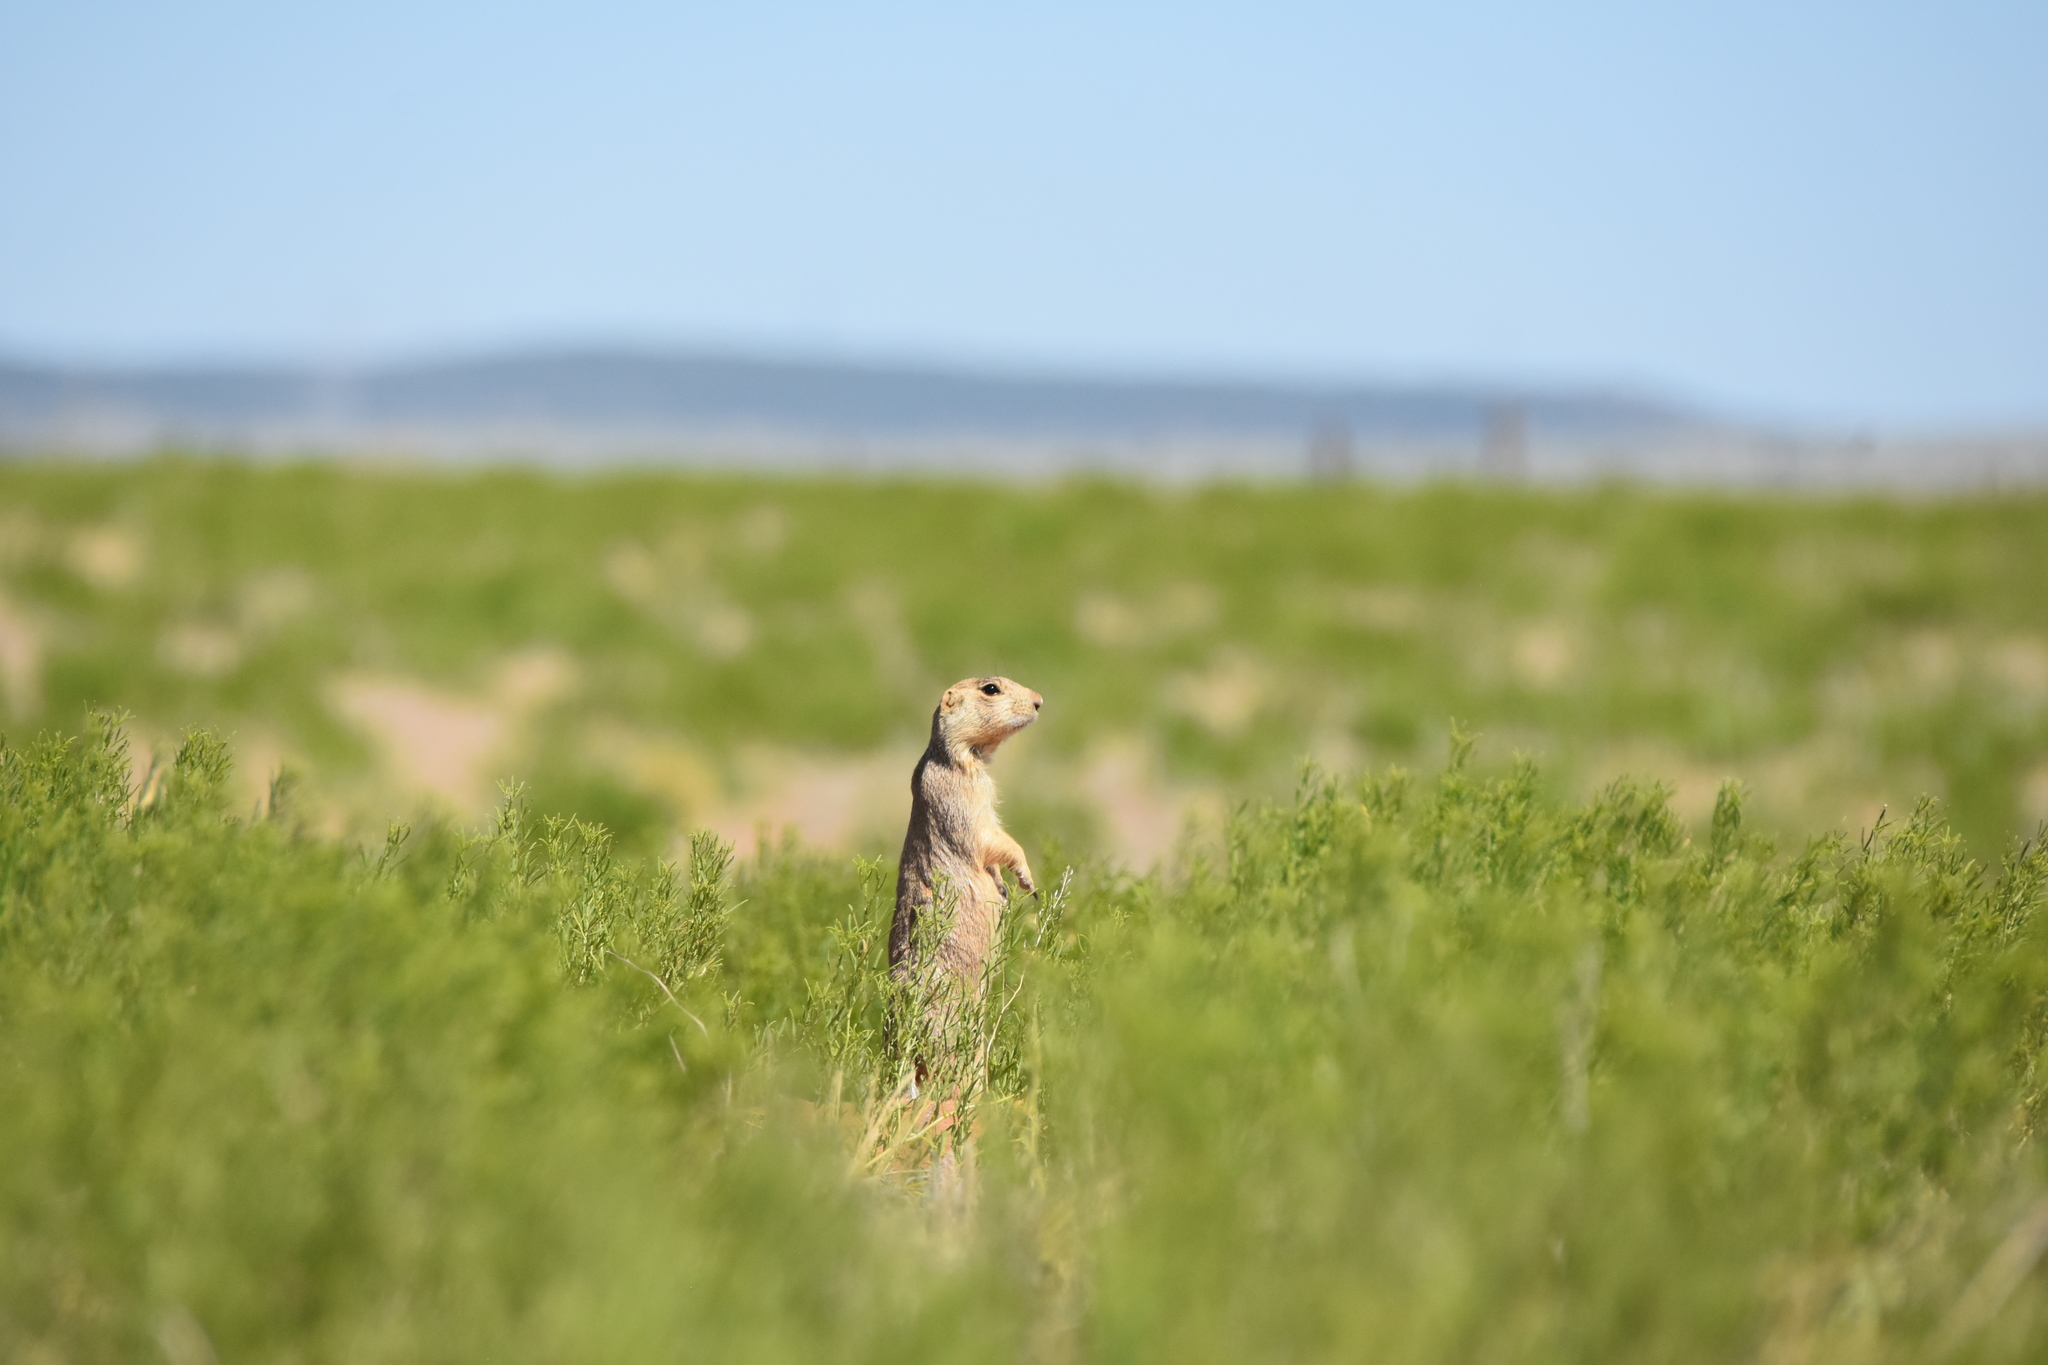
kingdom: Animalia
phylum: Chordata
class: Mammalia
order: Rodentia
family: Sciuridae
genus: Cynomys
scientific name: Cynomys gunnisoni
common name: Gunnison's prairie dog
